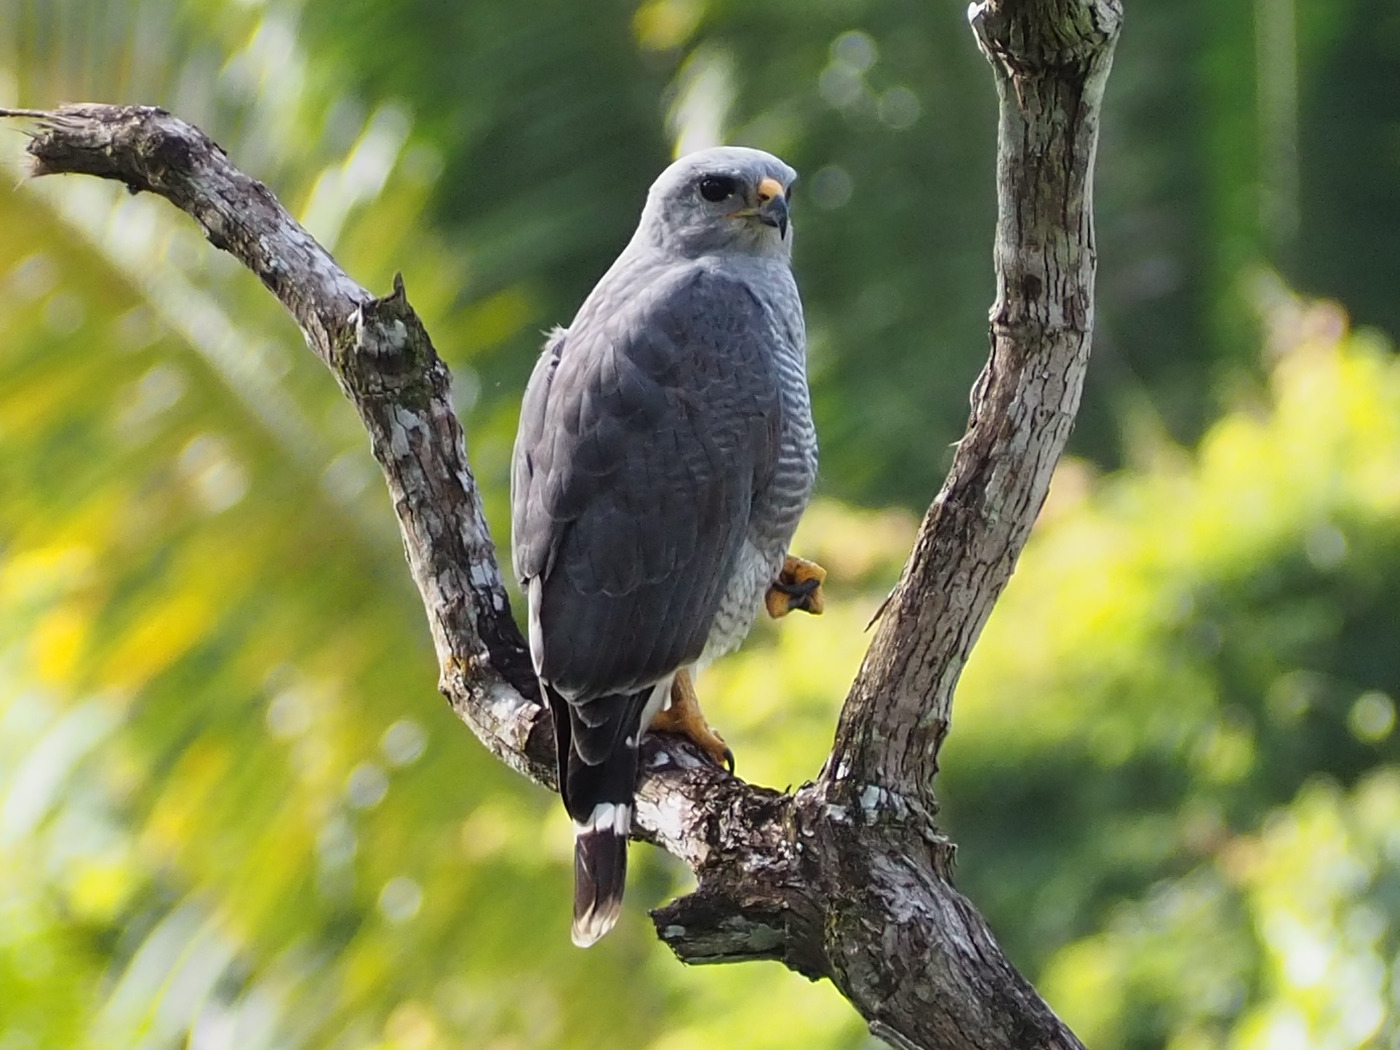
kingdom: Animalia
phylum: Chordata
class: Aves
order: Accipitriformes
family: Accipitridae
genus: Buteo
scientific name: Buteo nitidus
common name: Grey-lined hawk
